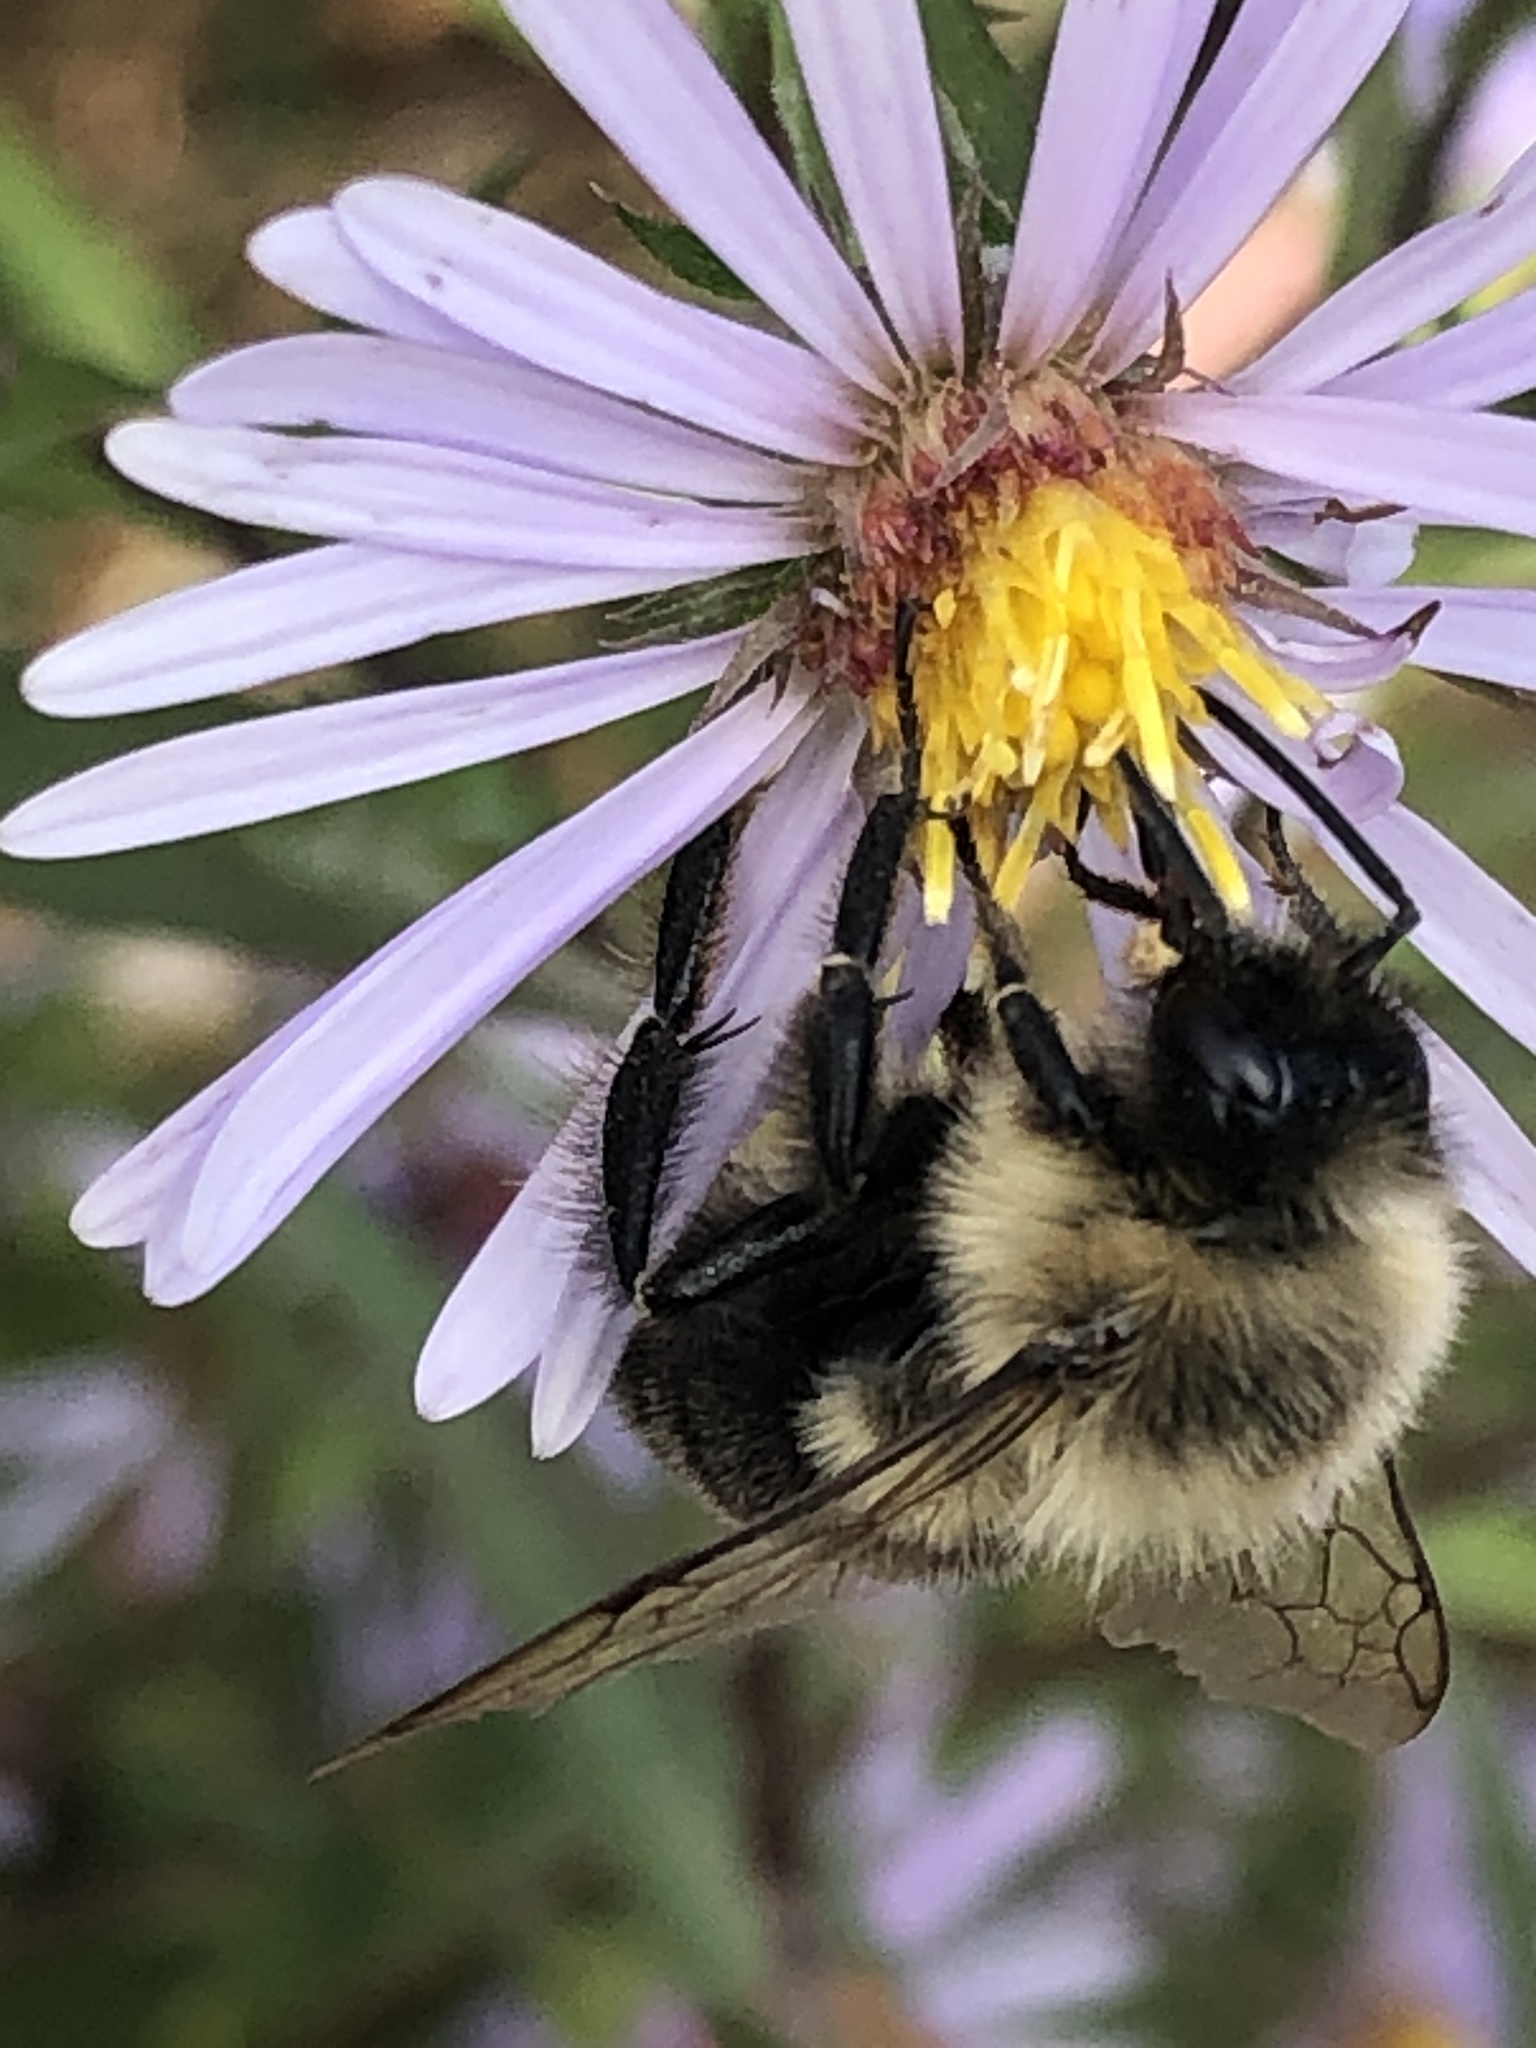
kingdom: Animalia
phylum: Arthropoda
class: Insecta
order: Hymenoptera
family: Apidae
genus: Bombus
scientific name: Bombus impatiens
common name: Common eastern bumble bee
